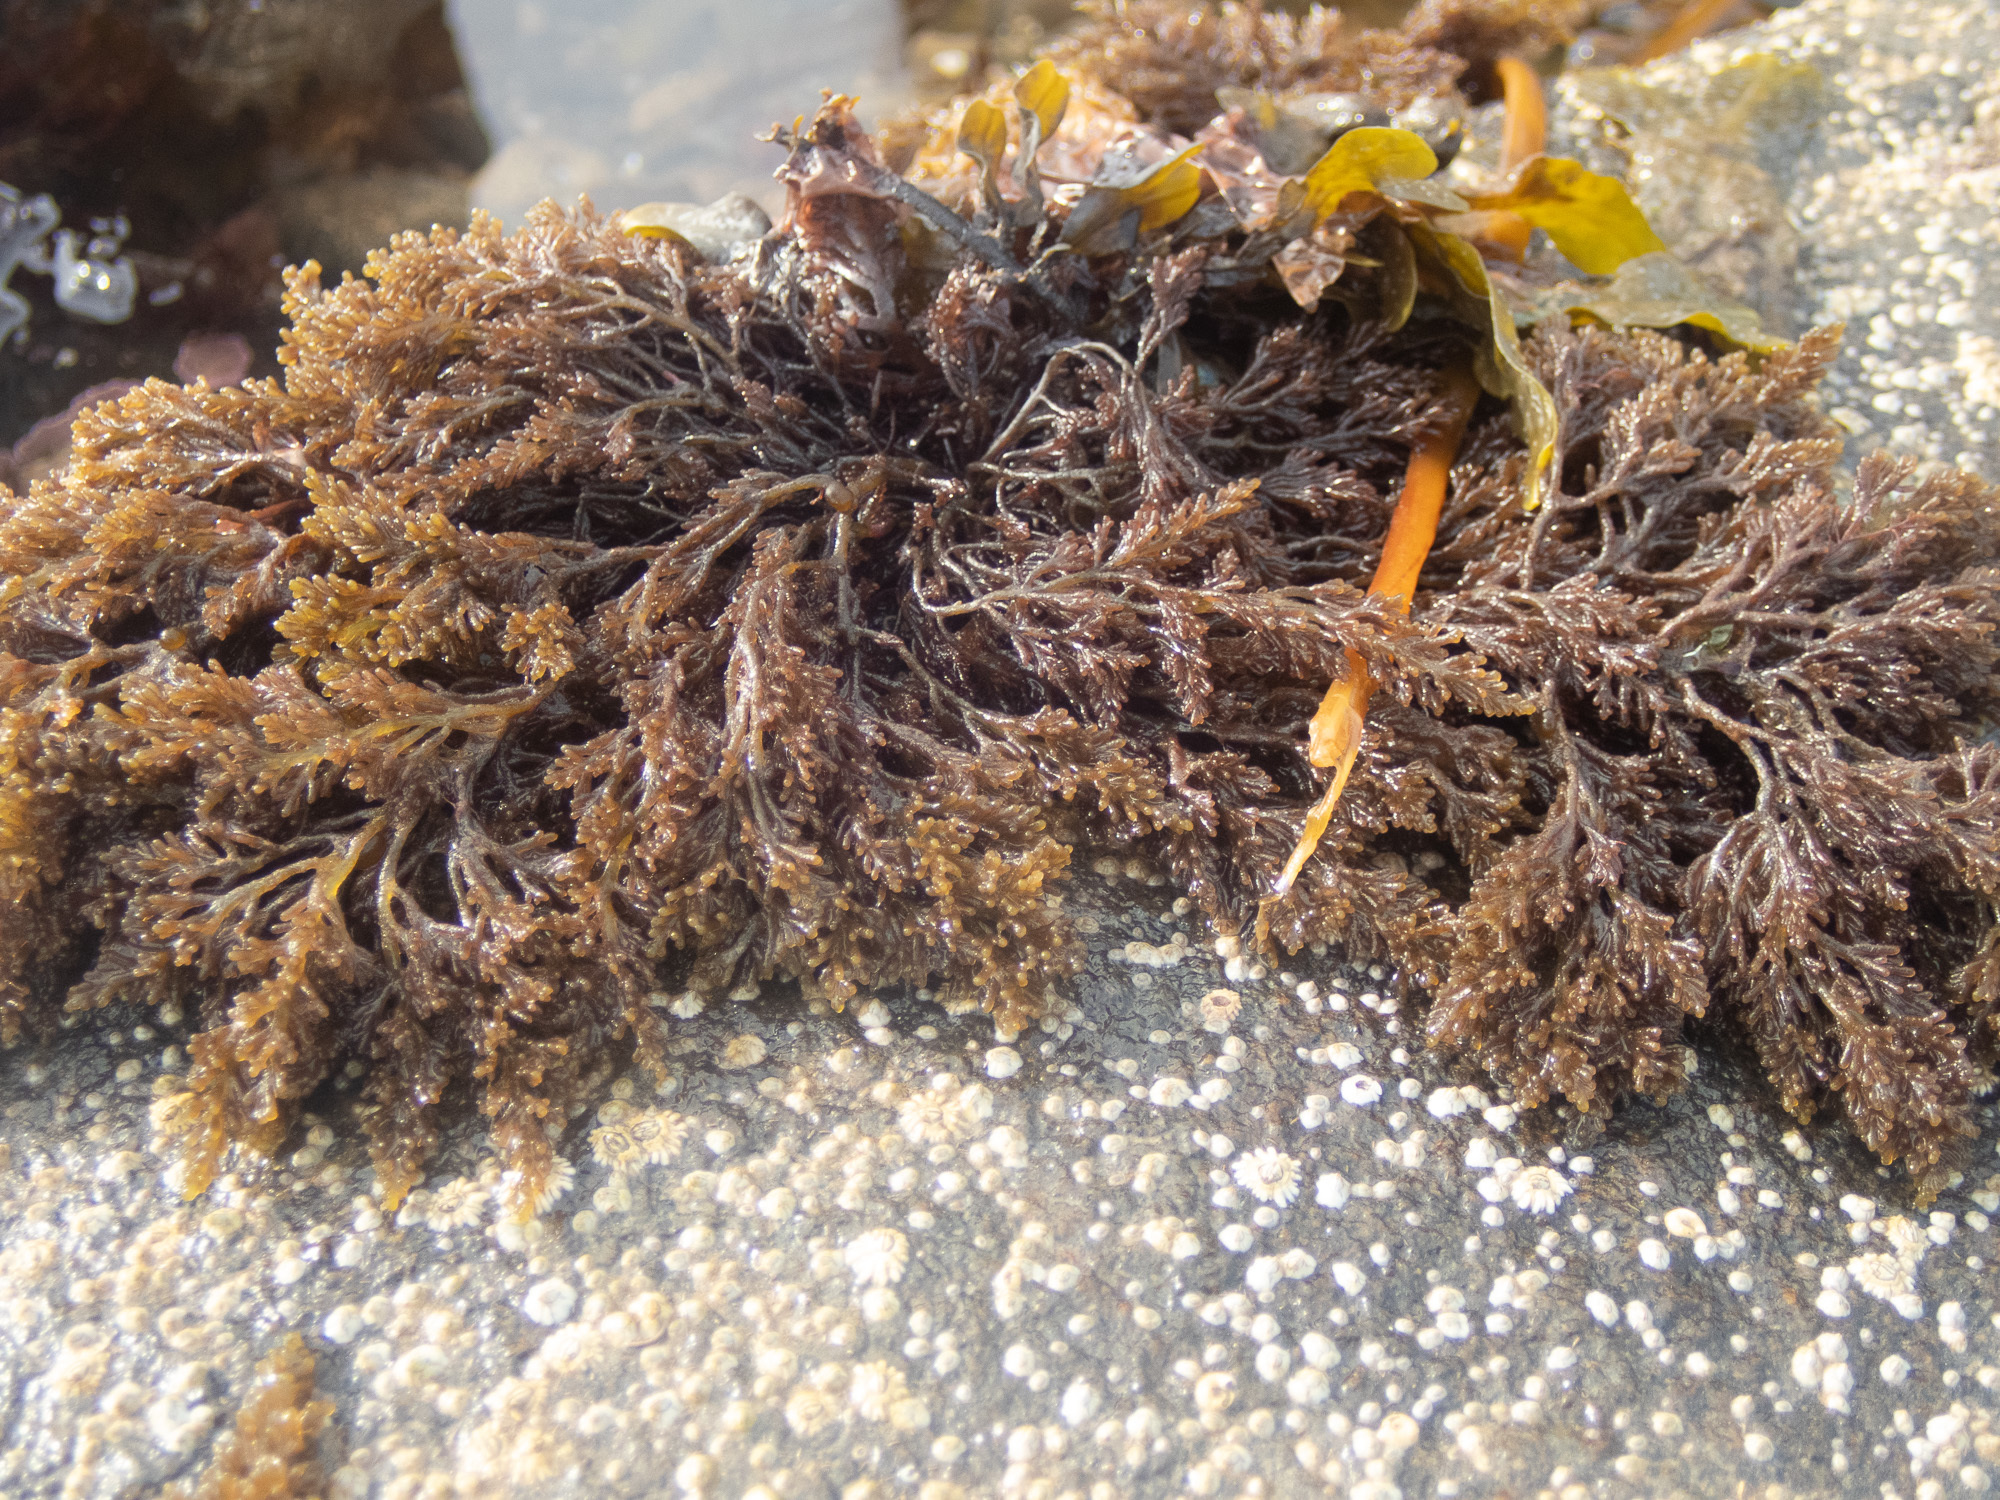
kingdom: Plantae
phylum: Rhodophyta
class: Florideophyceae
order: Ceramiales
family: Rhodomelaceae
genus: Osmundea
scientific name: Osmundea hybrida
